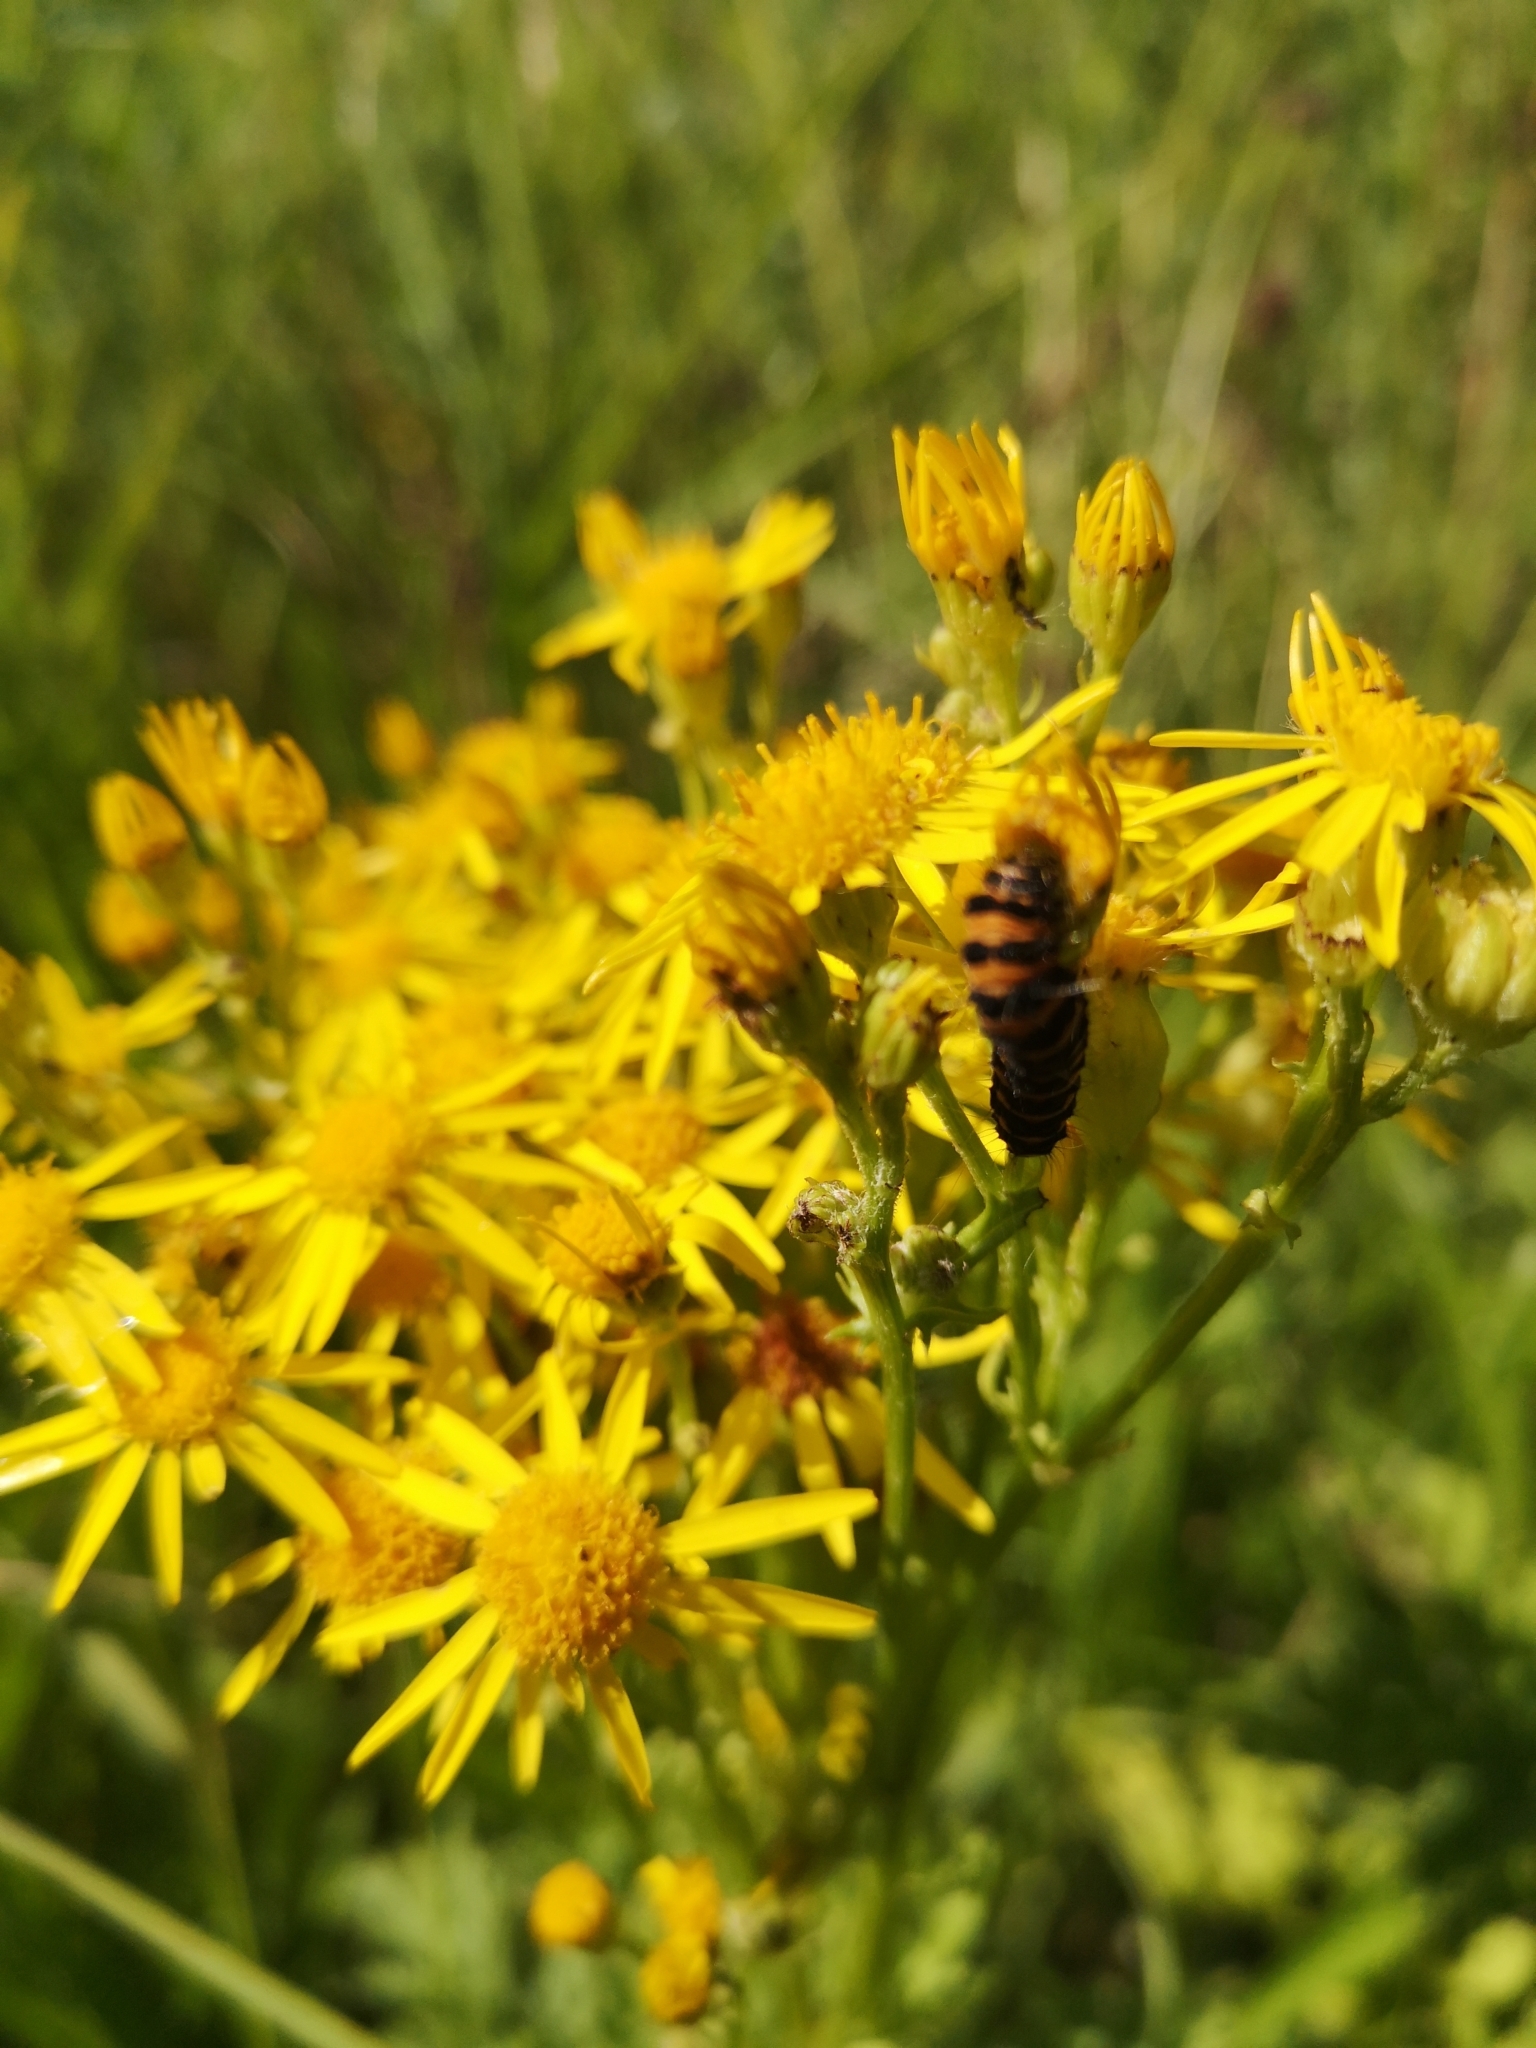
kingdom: Animalia
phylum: Arthropoda
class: Insecta
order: Lepidoptera
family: Erebidae
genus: Tyria
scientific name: Tyria jacobaeae
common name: Cinnabar
